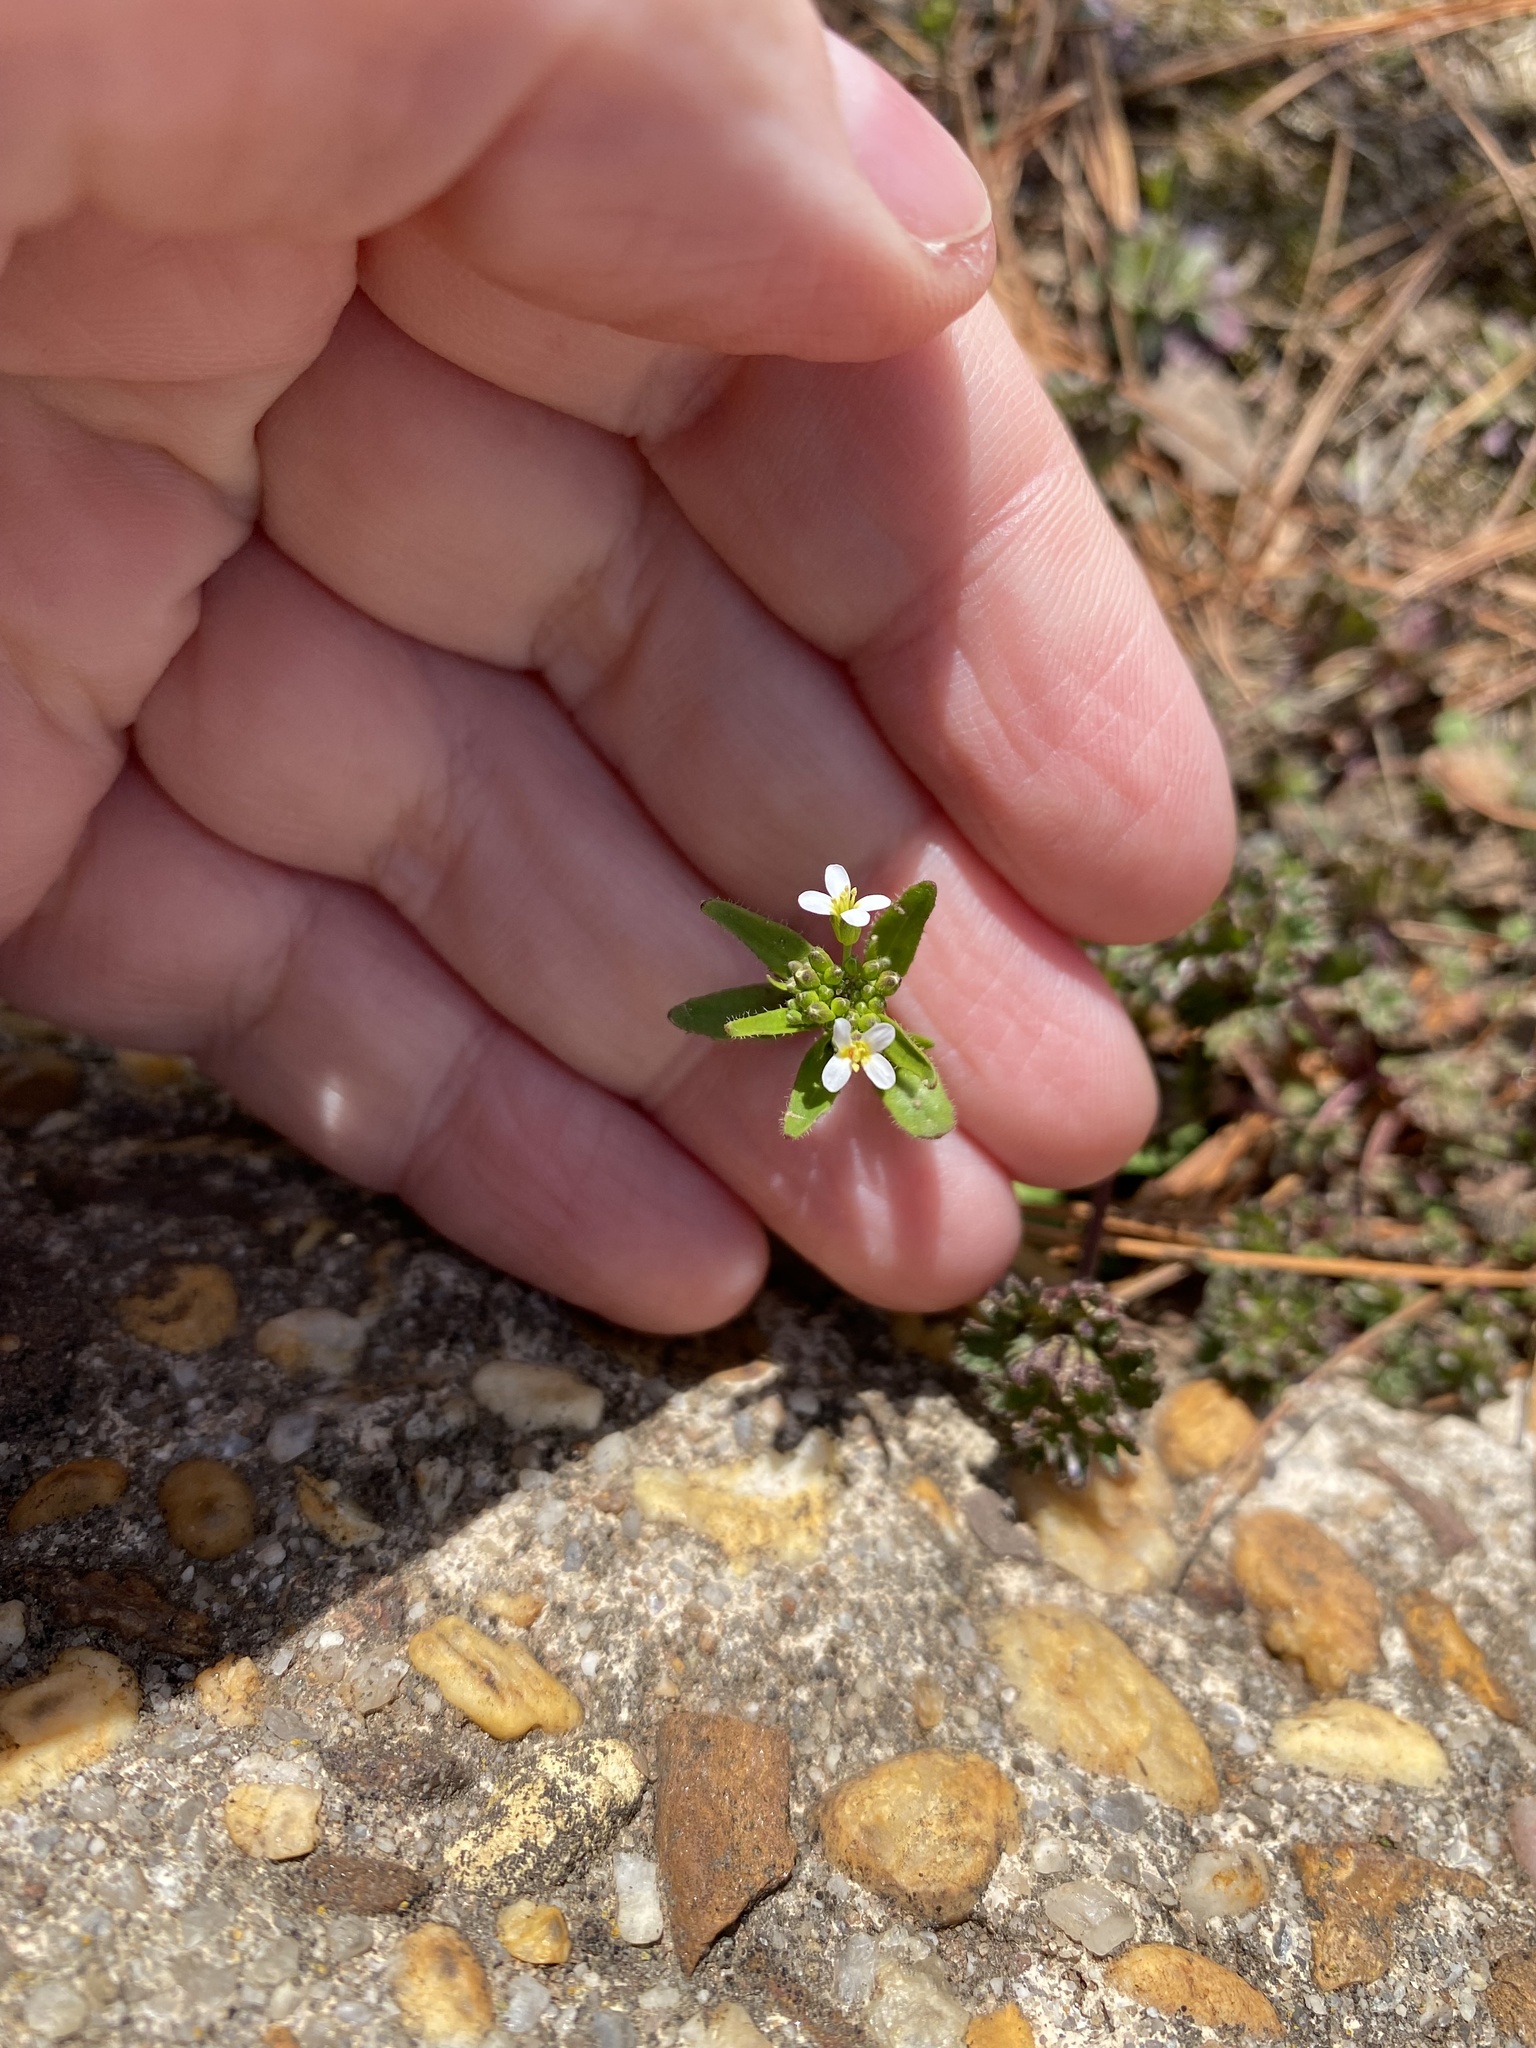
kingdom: Plantae
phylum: Tracheophyta
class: Magnoliopsida
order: Brassicales
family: Brassicaceae
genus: Arabidopsis
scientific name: Arabidopsis thaliana
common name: Thale cress
